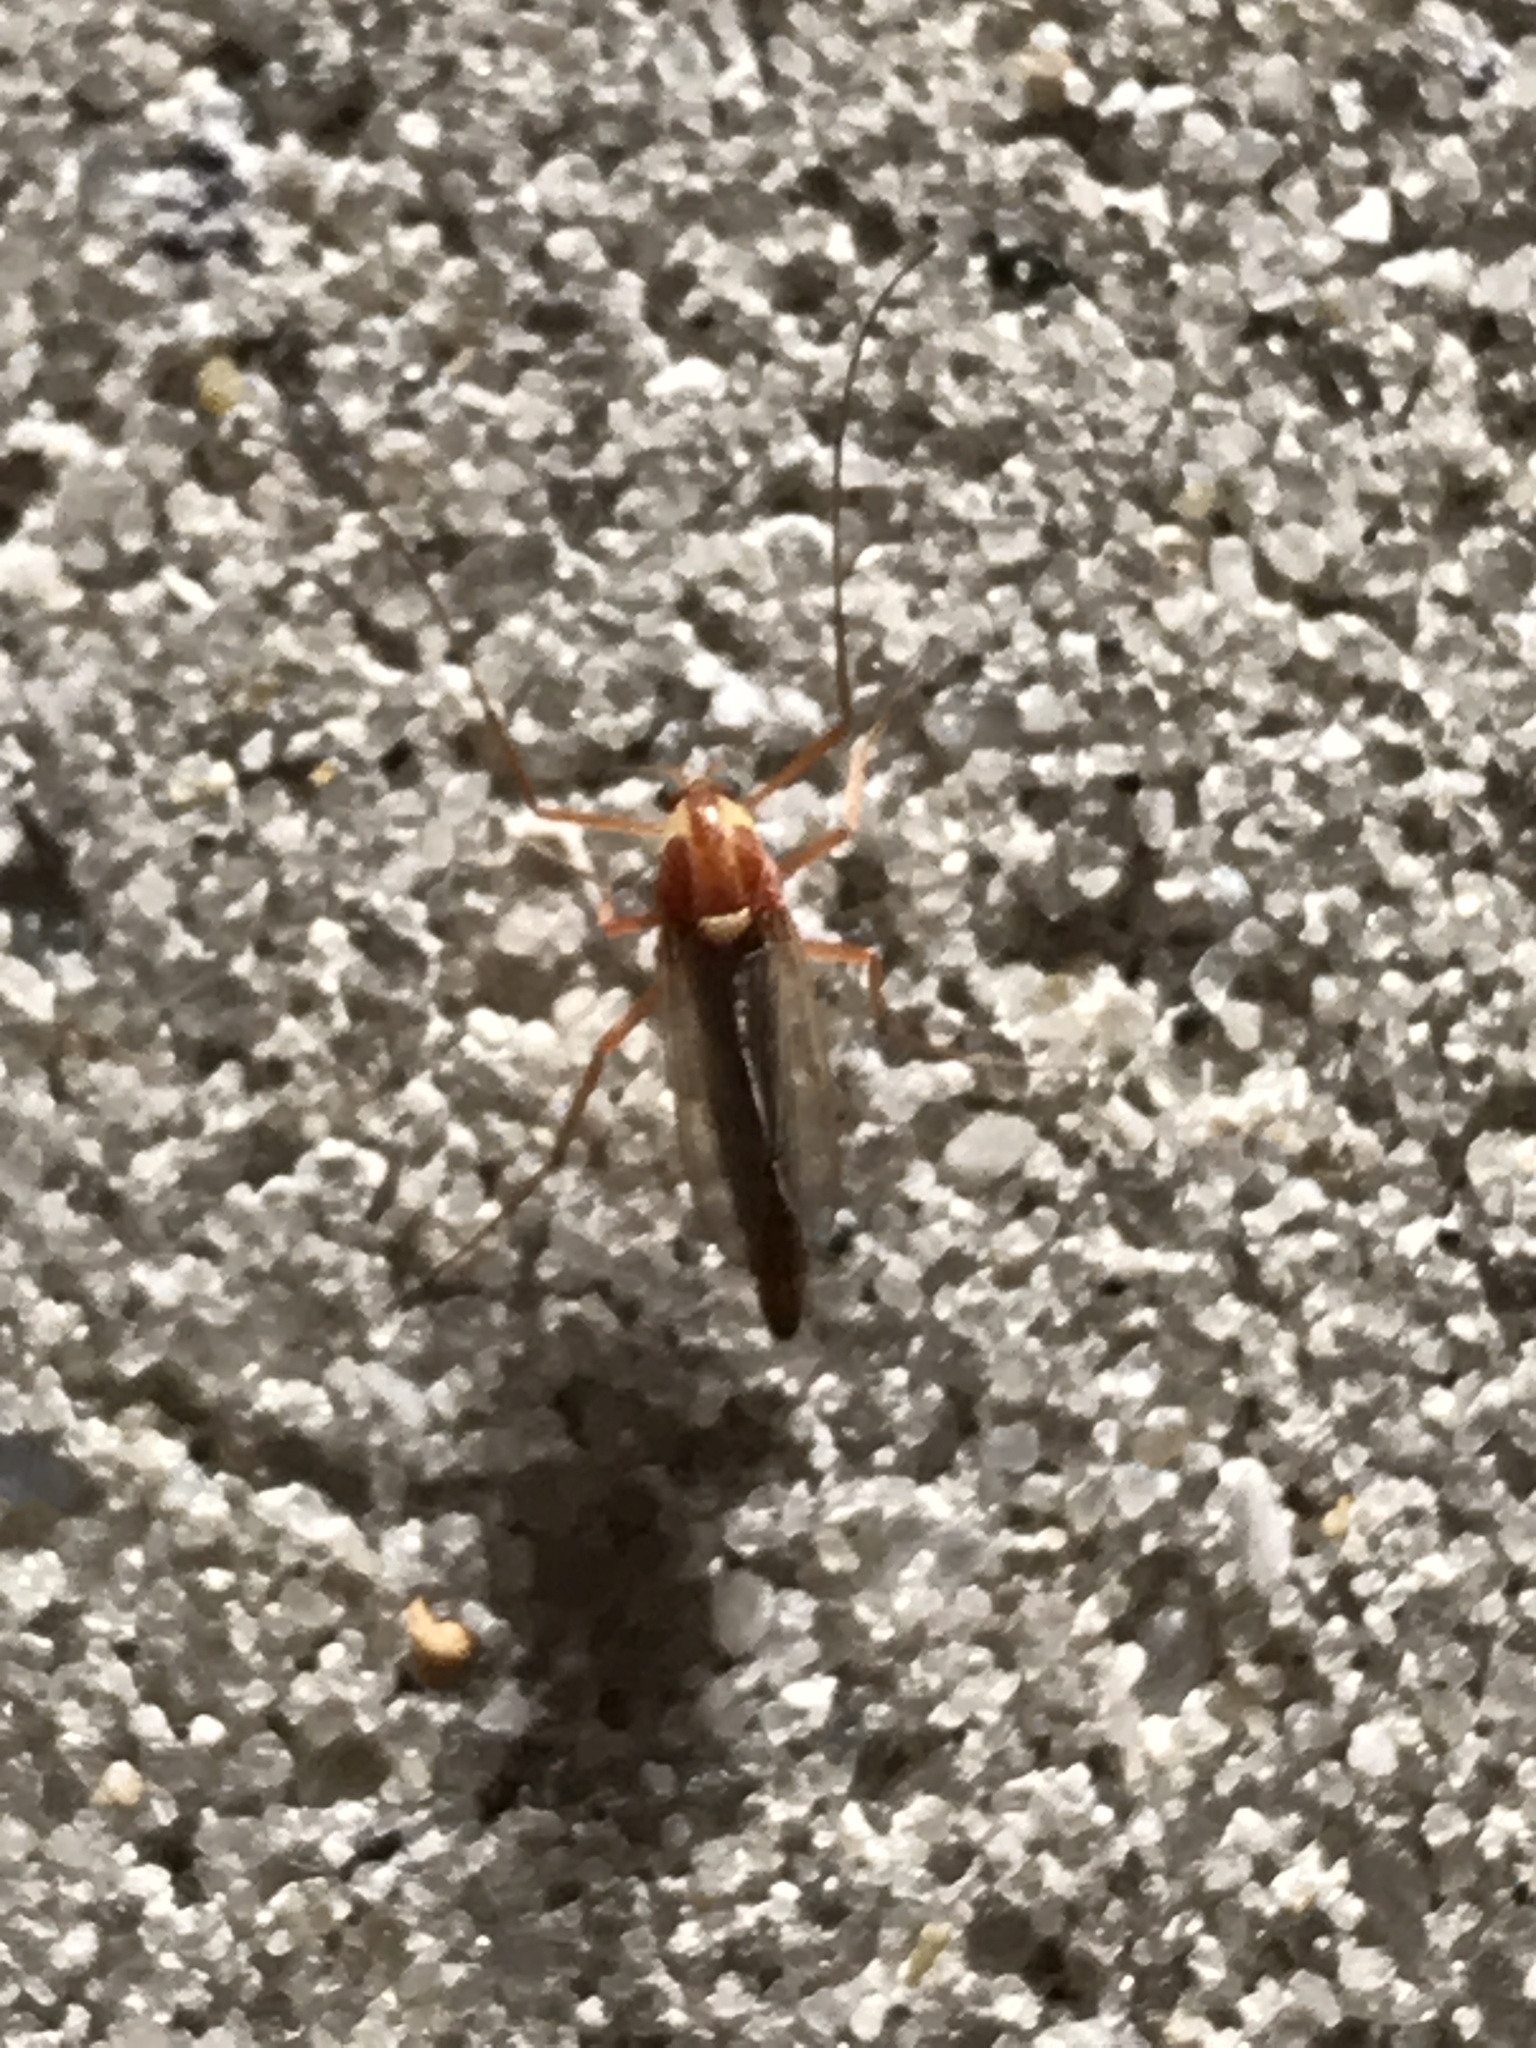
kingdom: Animalia
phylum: Arthropoda
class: Insecta
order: Diptera
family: Chironomidae
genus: Chironomus
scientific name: Chironomus ochreatus
